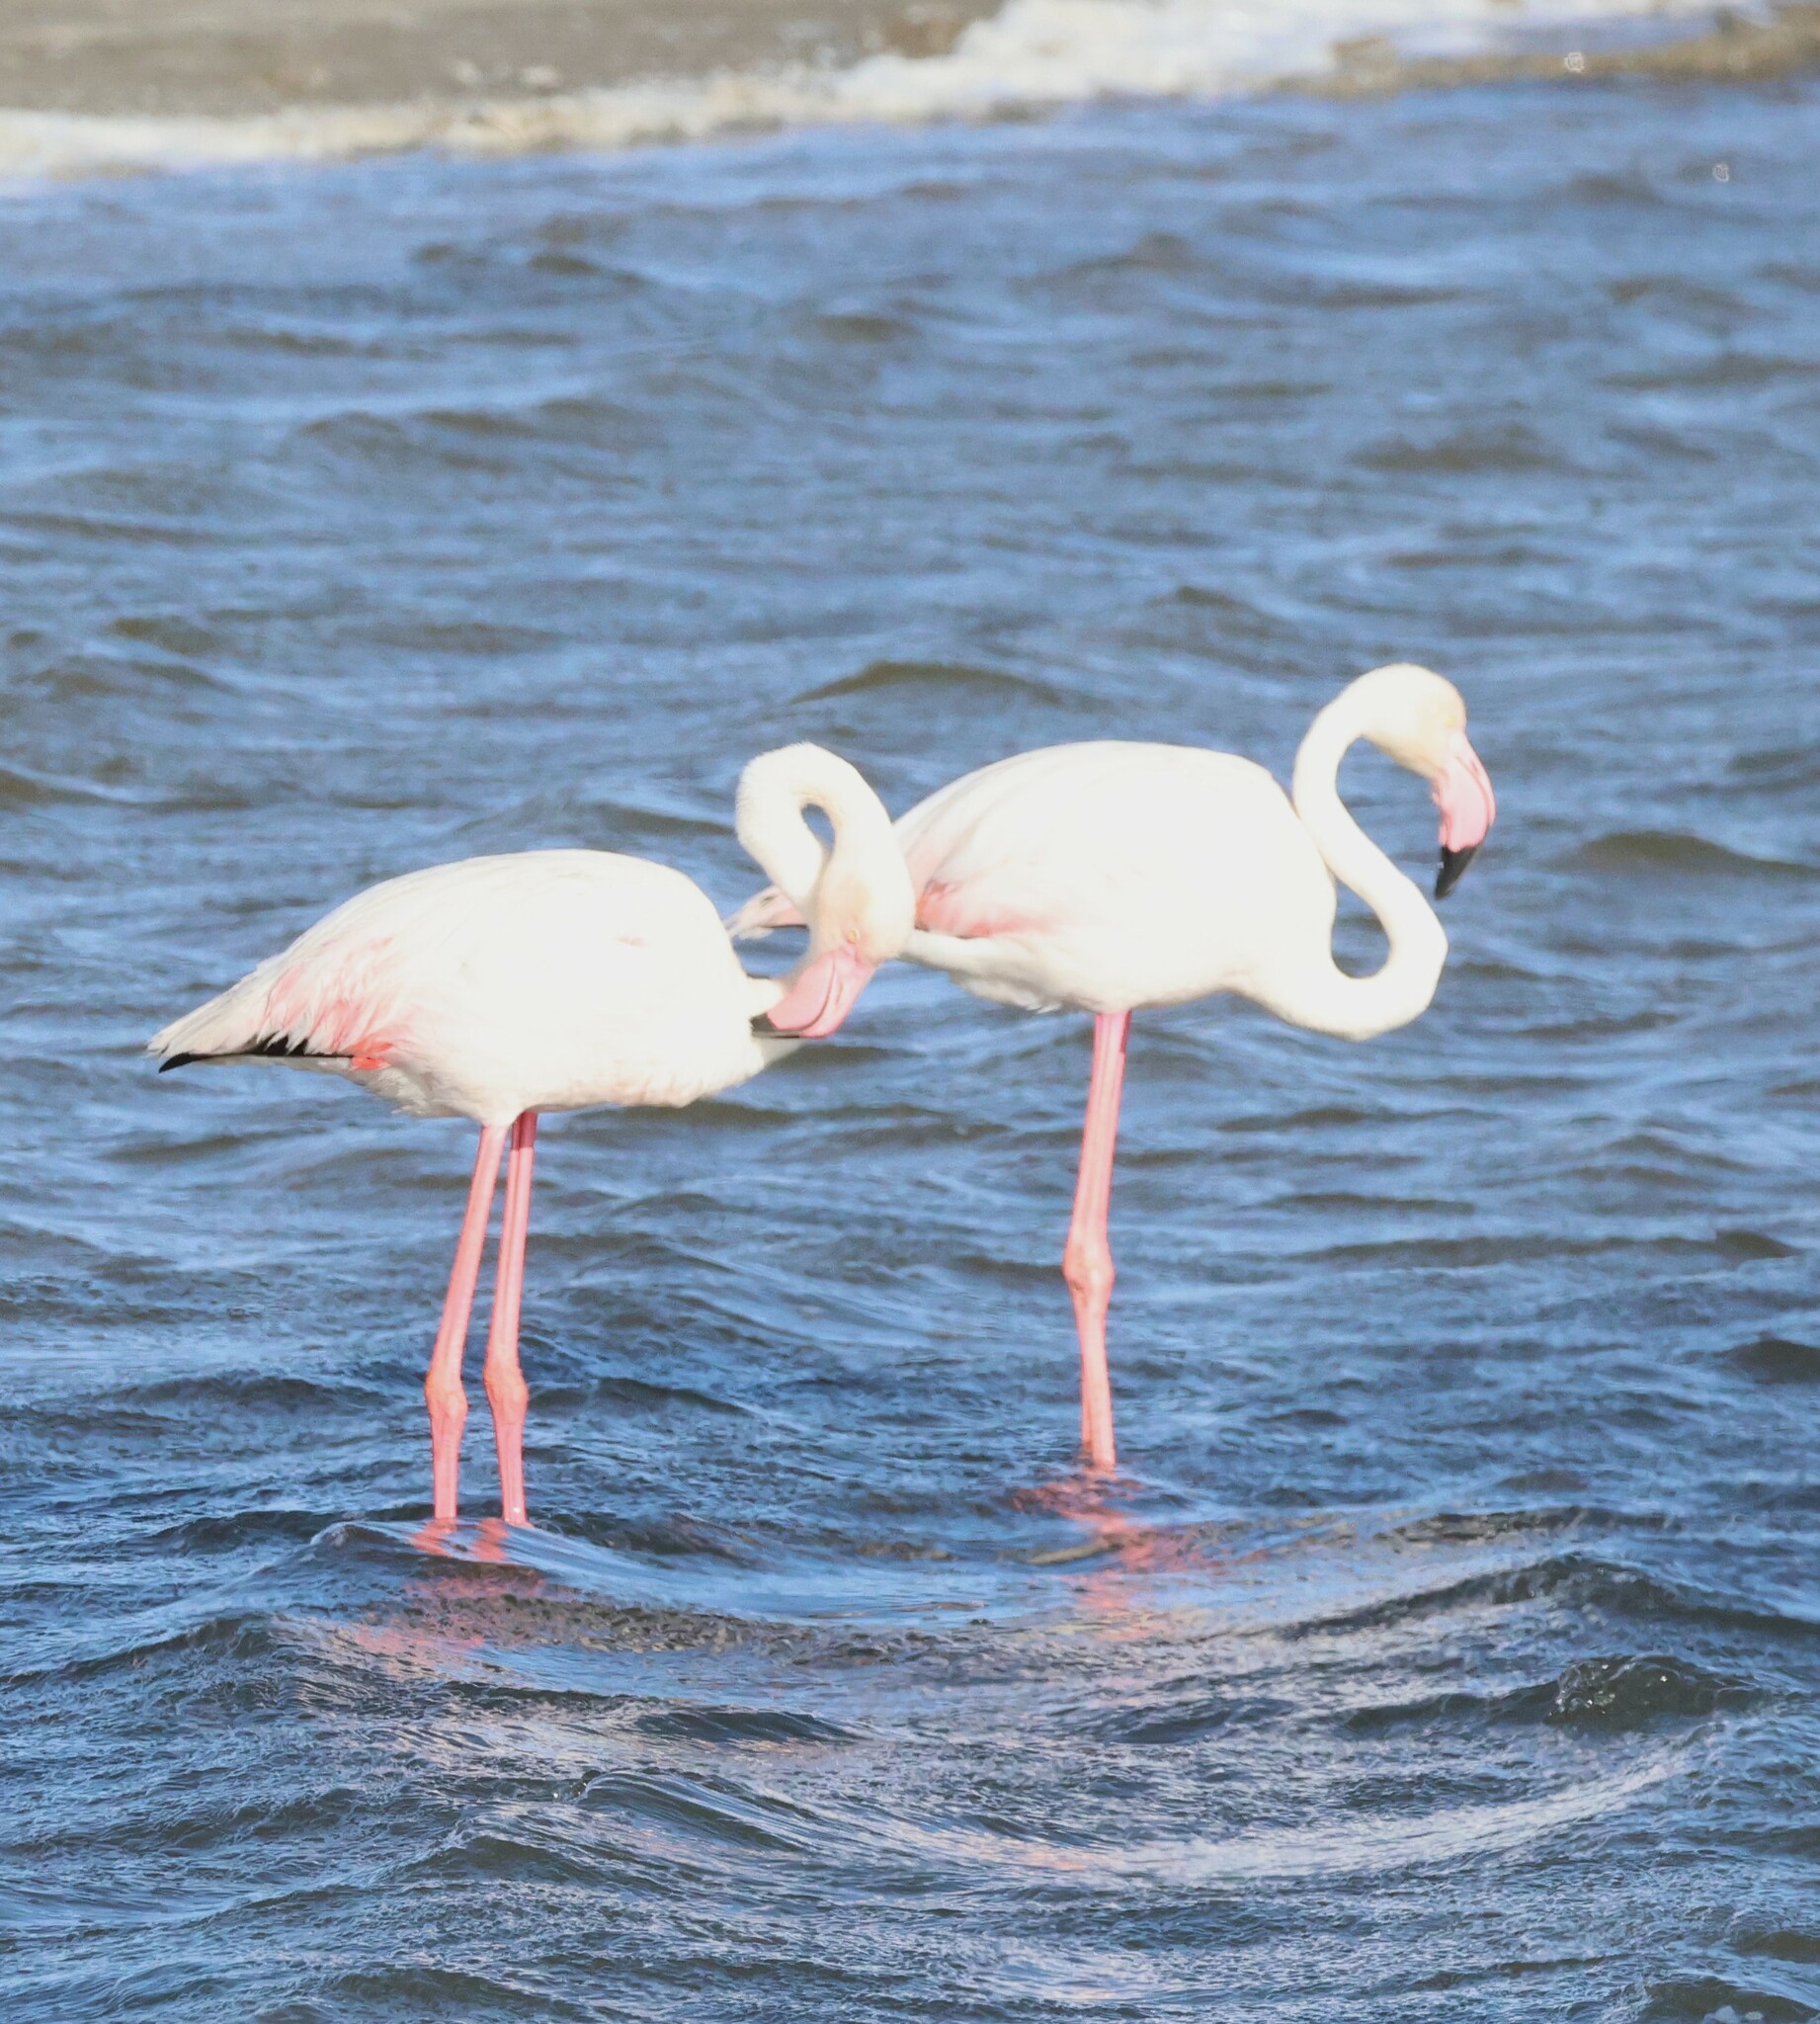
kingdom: Animalia
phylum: Chordata
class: Aves
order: Phoenicopteriformes
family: Phoenicopteridae
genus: Phoenicopterus
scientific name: Phoenicopterus roseus
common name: Greater flamingo
